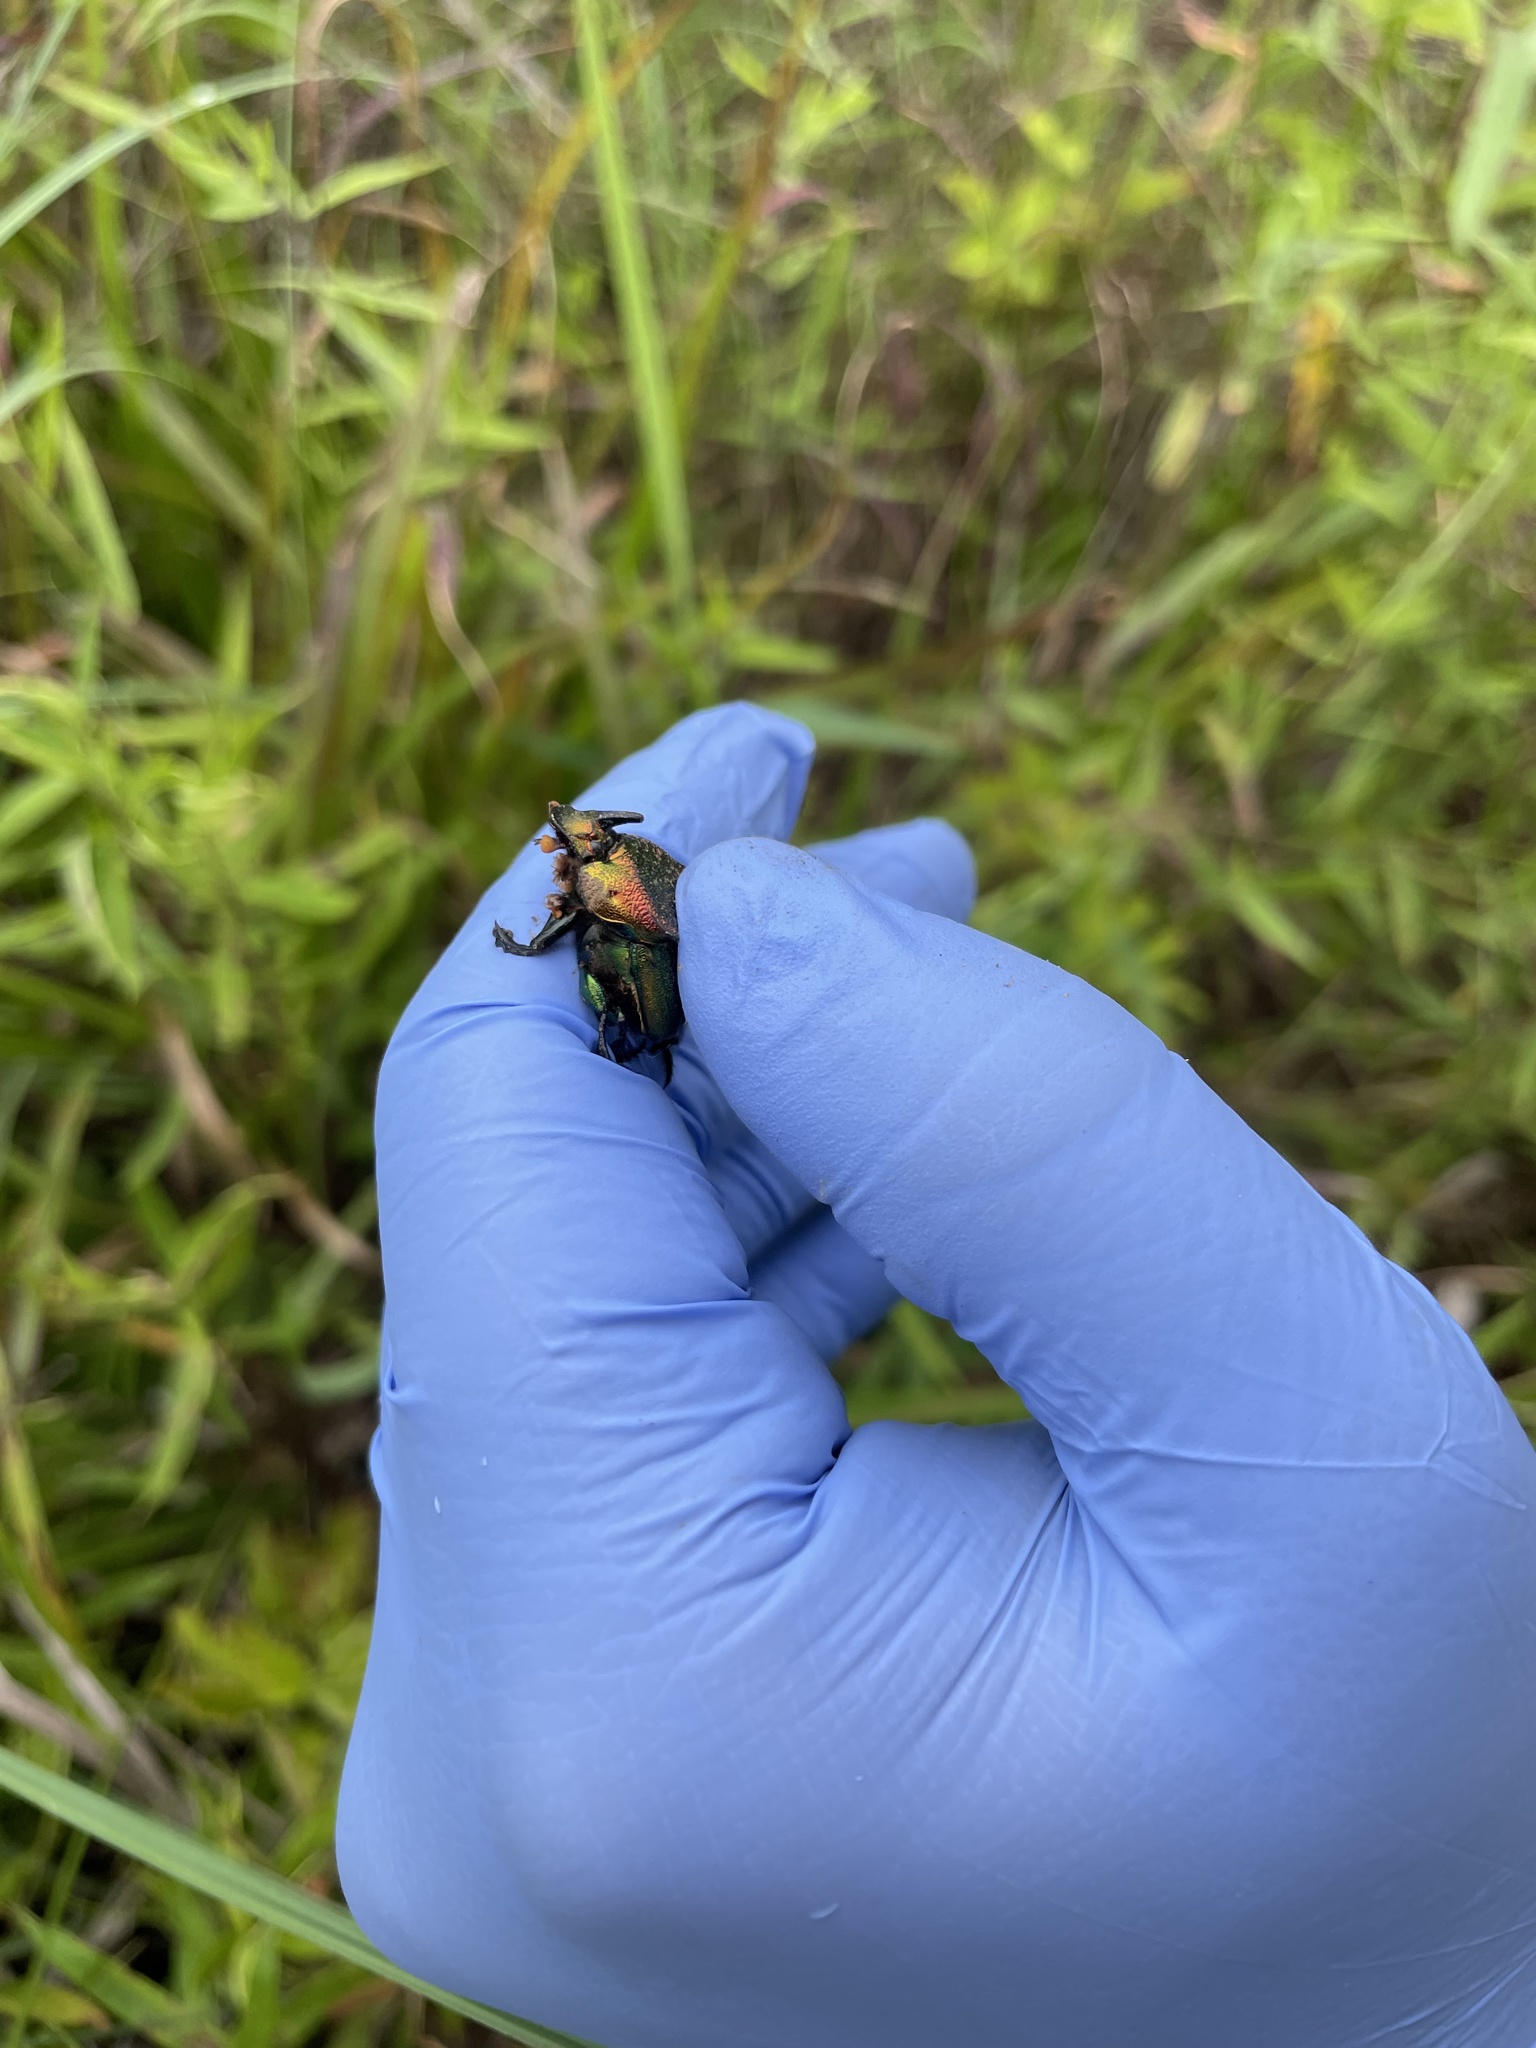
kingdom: Animalia
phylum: Arthropoda
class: Insecta
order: Coleoptera
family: Scarabaeidae
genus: Phanaeus
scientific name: Phanaeus vindex
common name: Rainbow scarab
